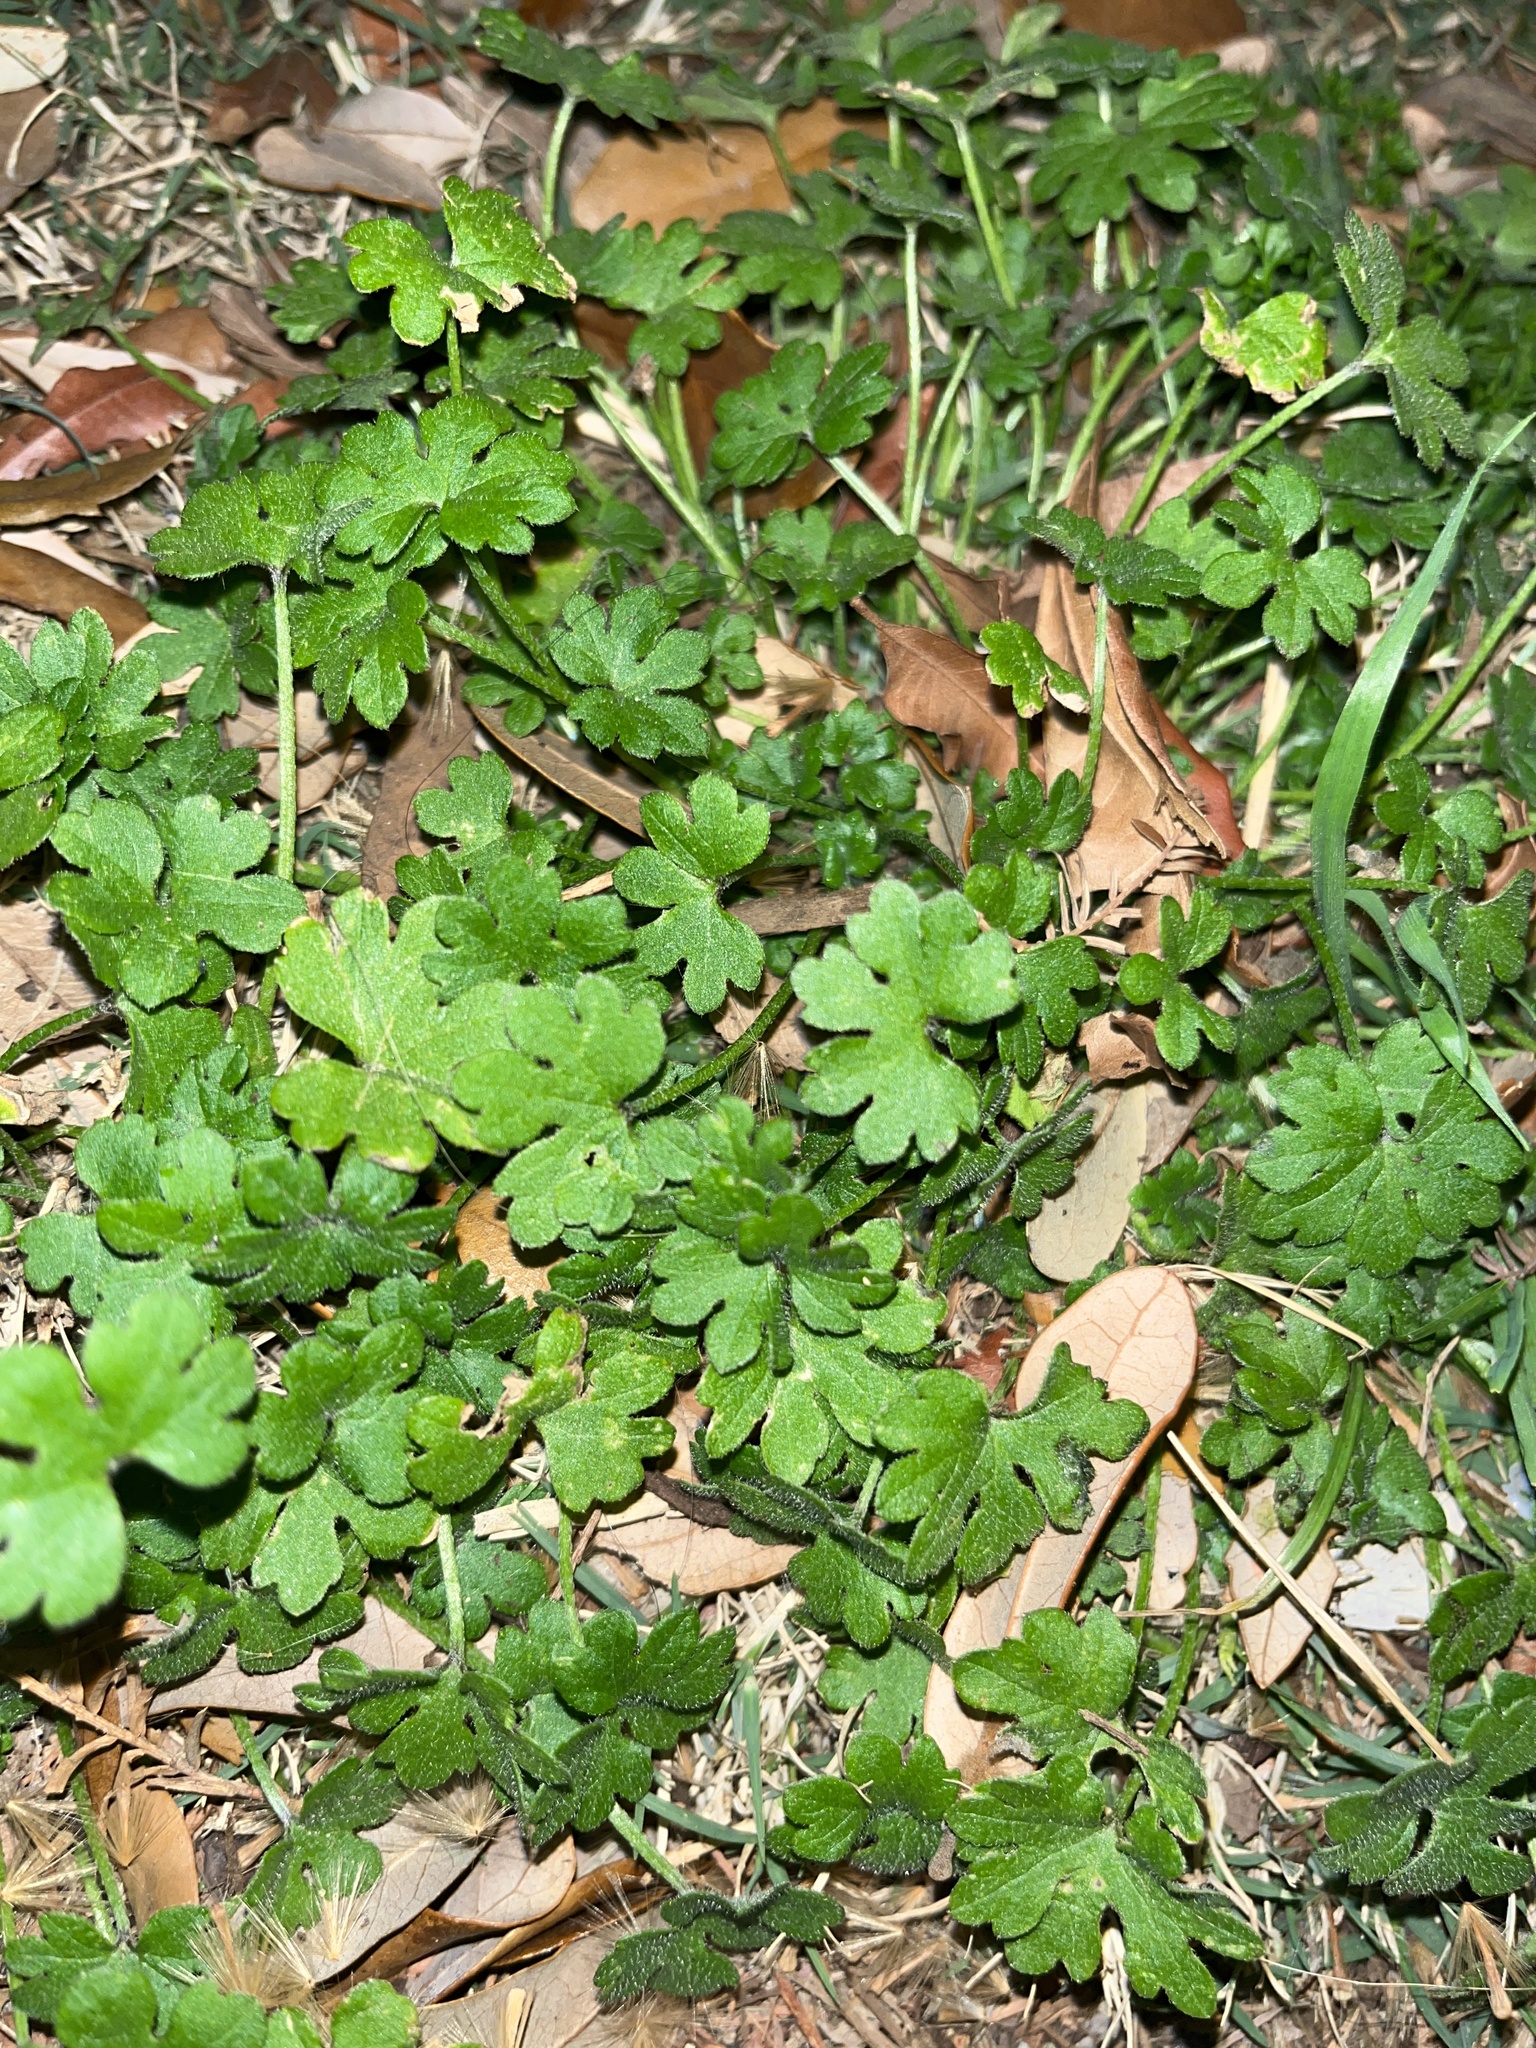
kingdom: Plantae
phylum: Tracheophyta
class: Magnoliopsida
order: Apiales
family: Apiaceae
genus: Bowlesia
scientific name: Bowlesia incana
